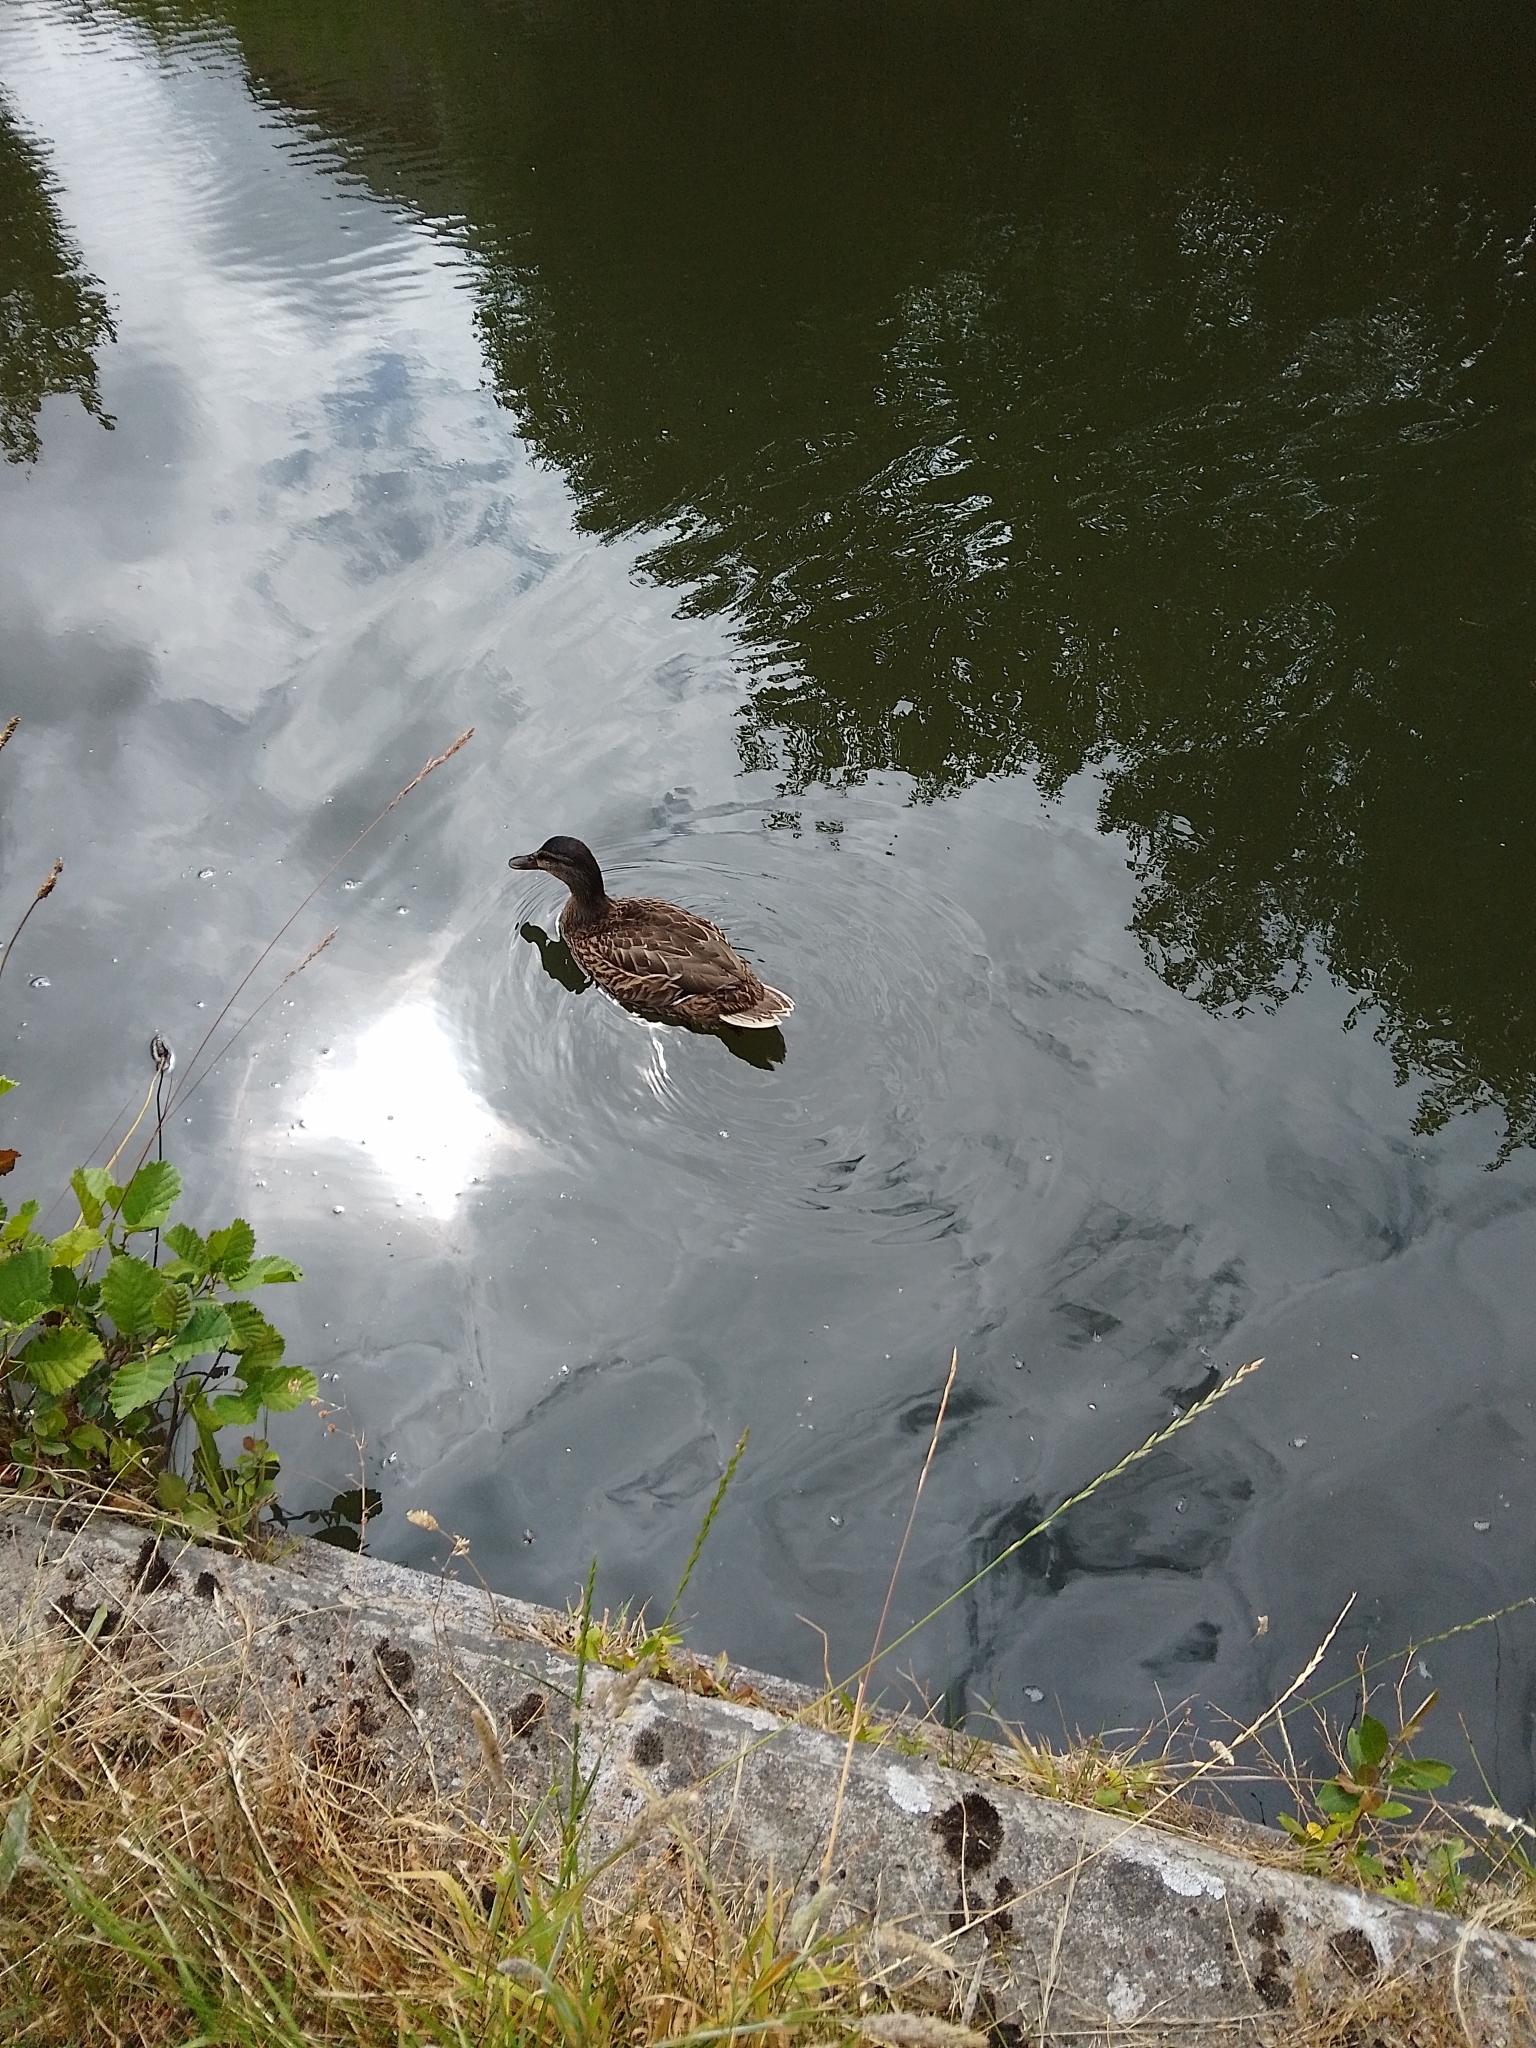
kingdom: Animalia
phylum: Chordata
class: Aves
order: Anseriformes
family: Anatidae
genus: Anas
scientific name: Anas platyrhynchos
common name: Mallard
